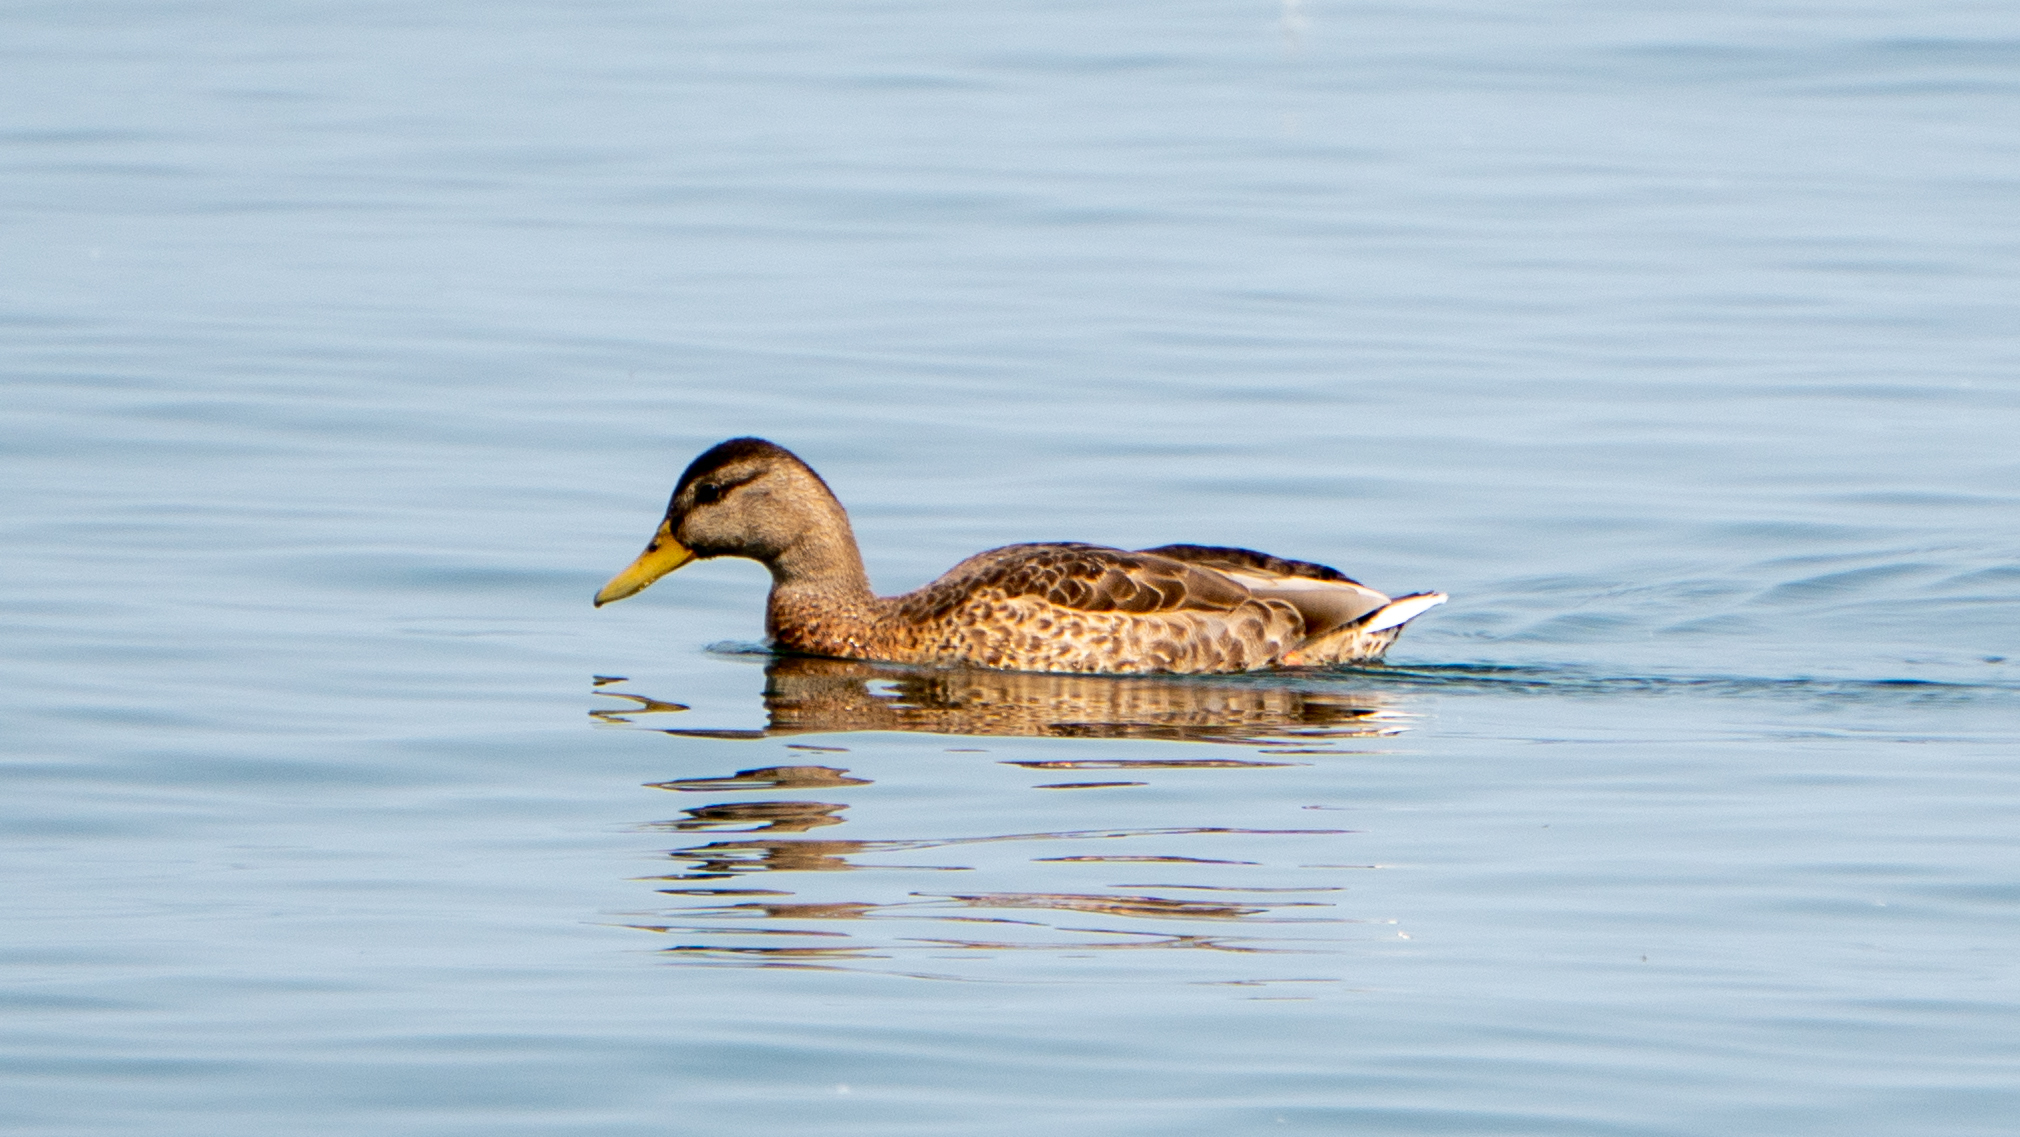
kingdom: Animalia
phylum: Chordata
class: Aves
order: Anseriformes
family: Anatidae
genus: Anas
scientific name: Anas platyrhynchos
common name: Mallard
